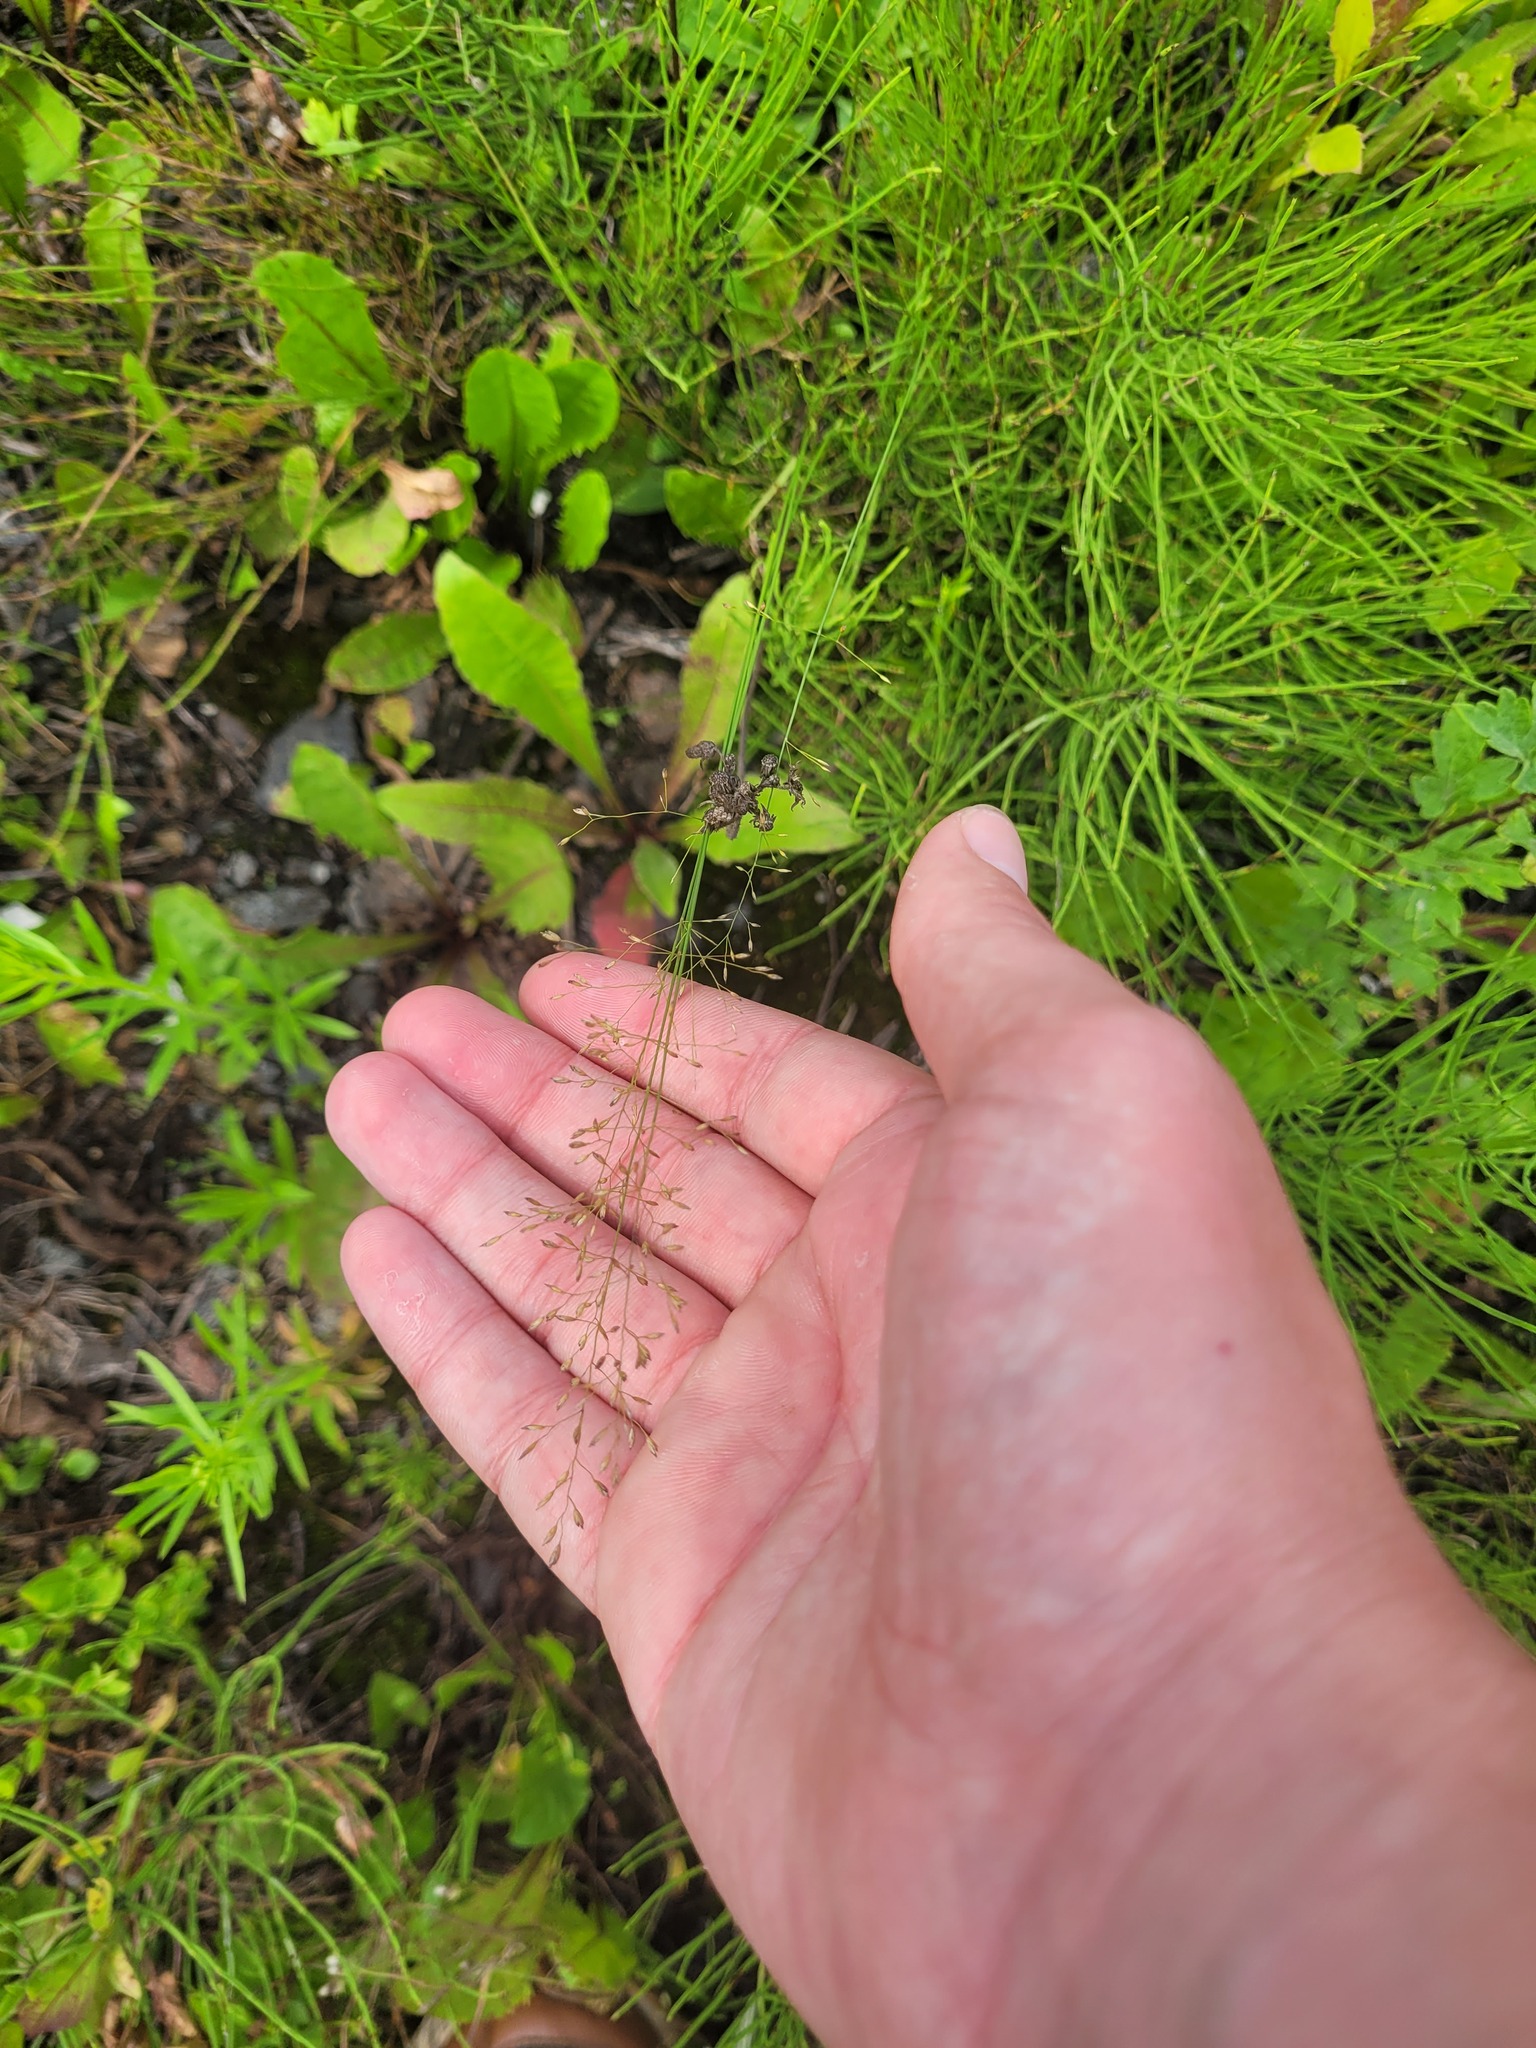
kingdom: Plantae
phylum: Tracheophyta
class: Liliopsida
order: Poales
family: Poaceae
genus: Poa
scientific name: Poa palustris
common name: Swamp meadow-grass
